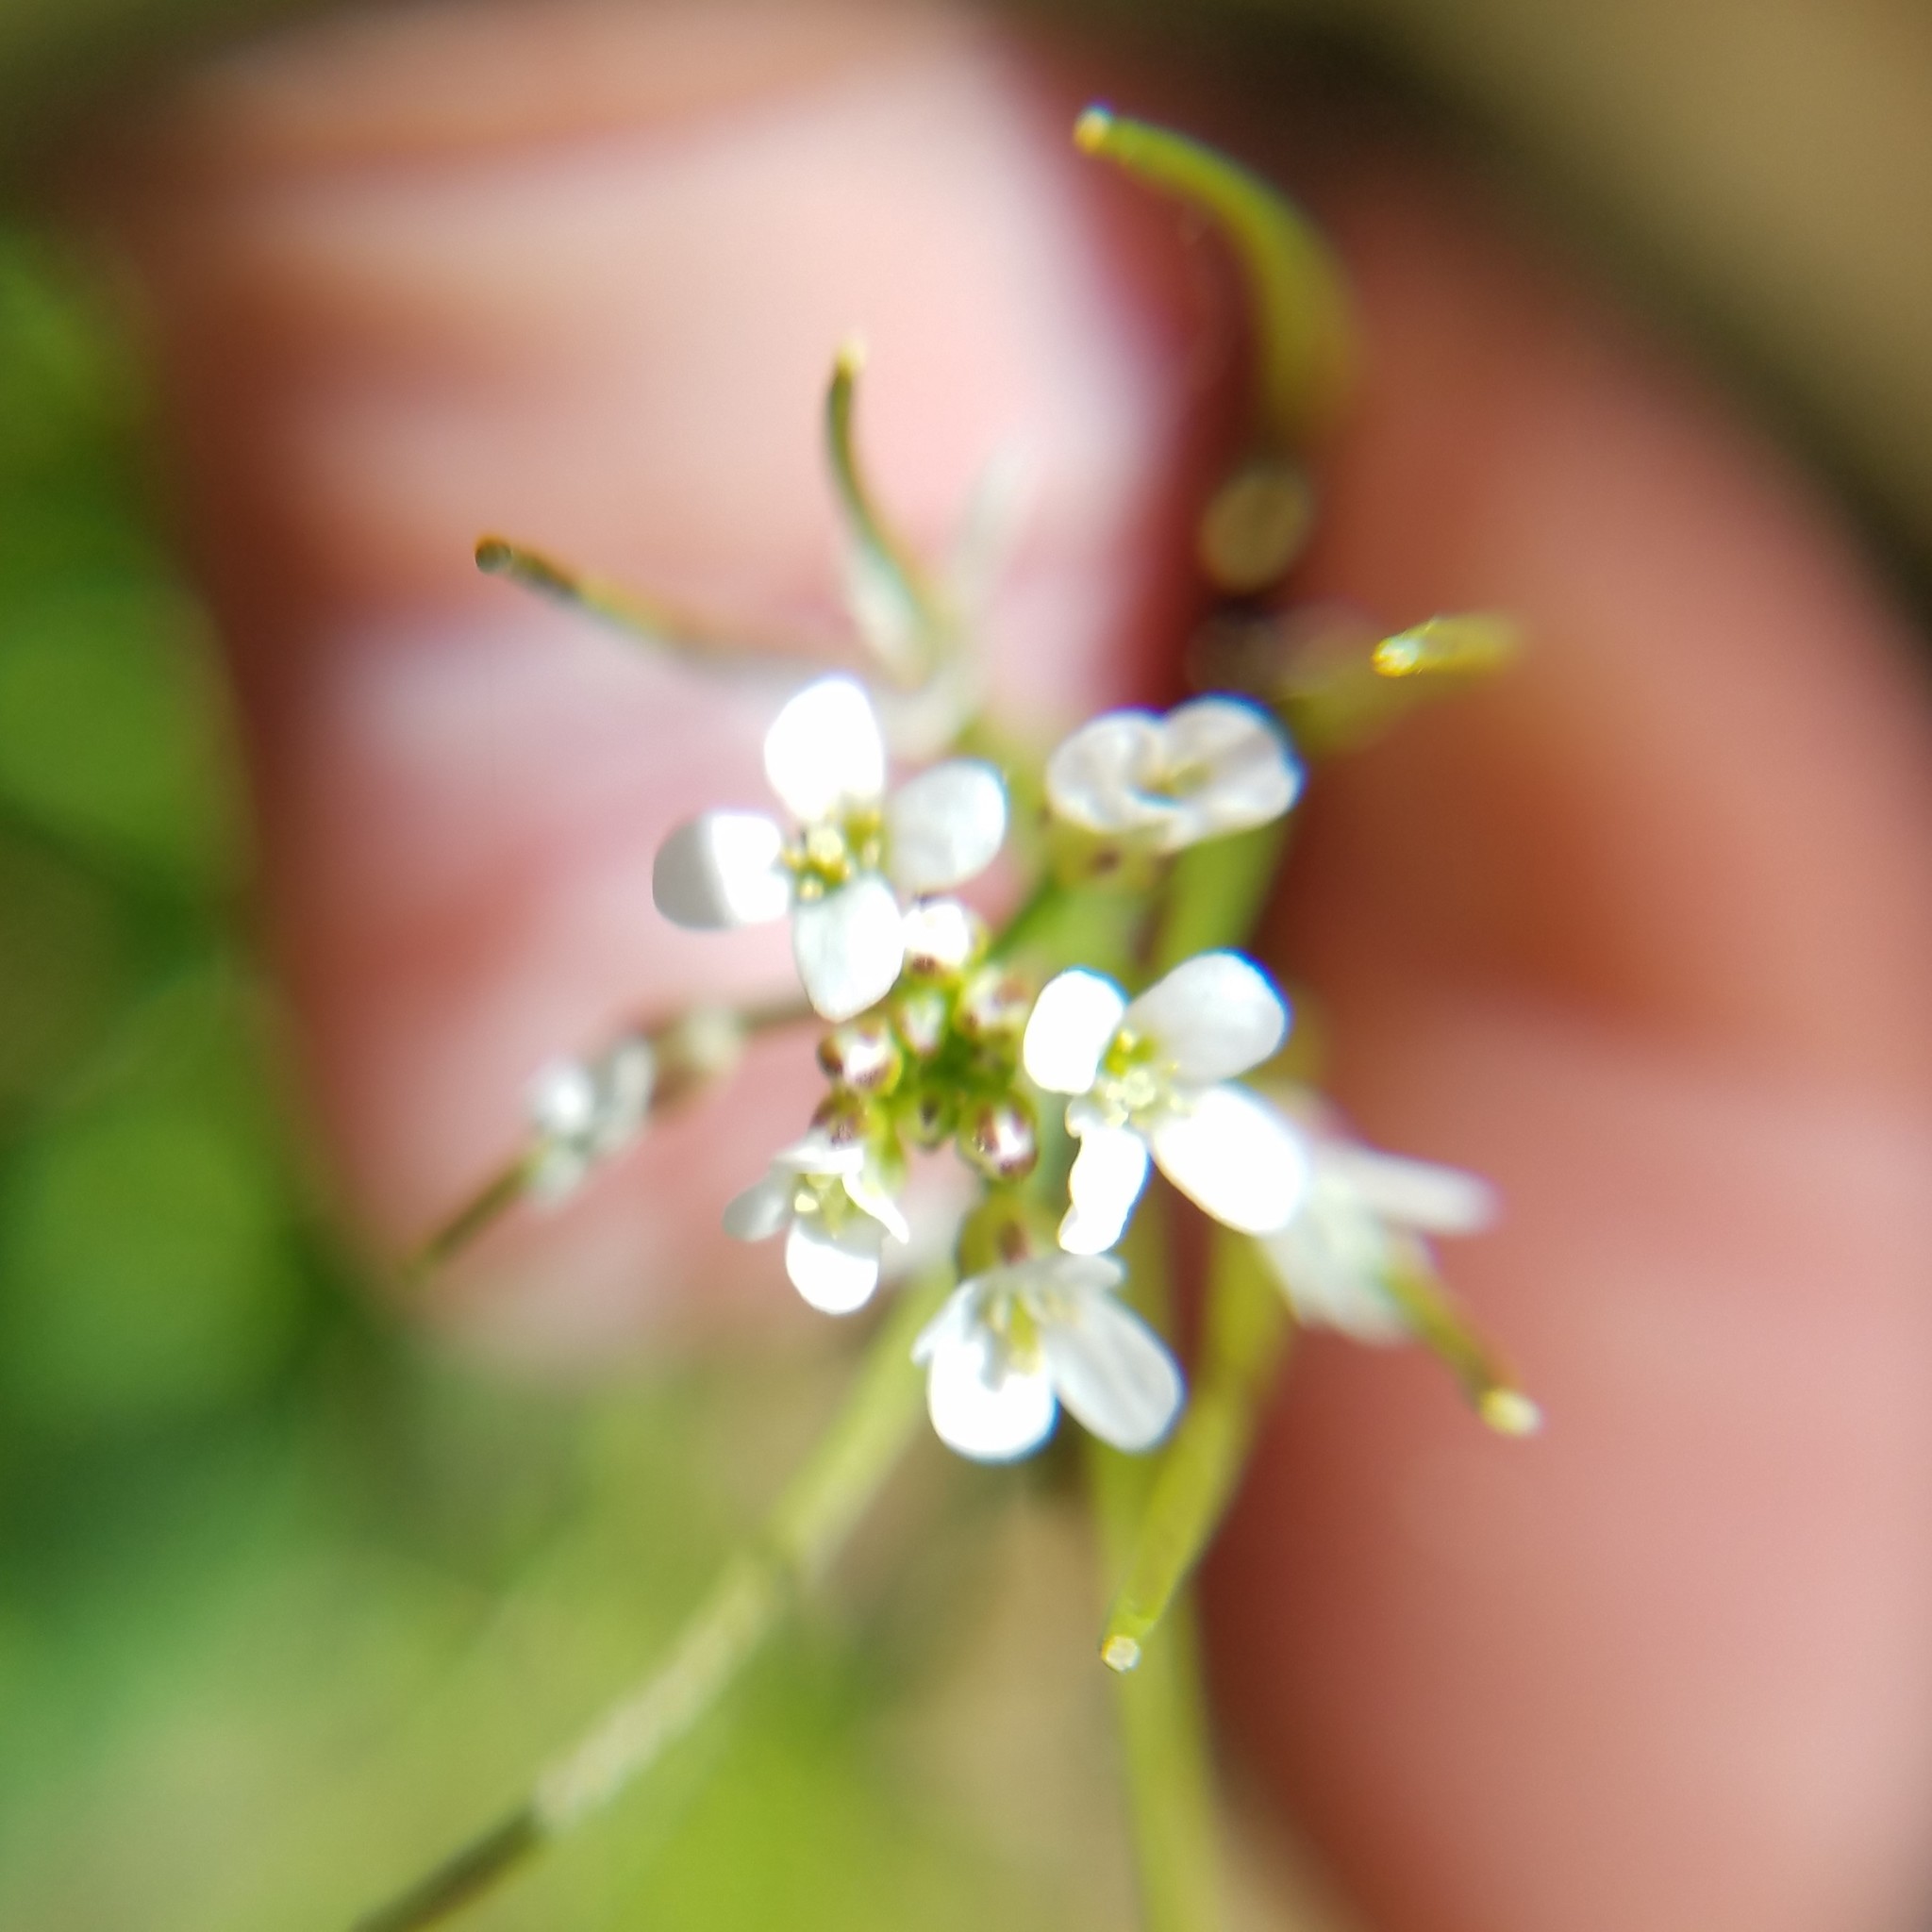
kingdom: Plantae
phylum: Tracheophyta
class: Magnoliopsida
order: Brassicales
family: Brassicaceae
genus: Cardamine
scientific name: Cardamine hirsuta
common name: Hairy bittercress
